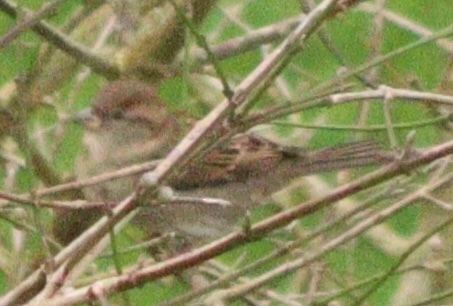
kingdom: Animalia
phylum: Chordata
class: Aves
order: Passeriformes
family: Passeridae
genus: Passer
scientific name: Passer domesticus
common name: House sparrow
